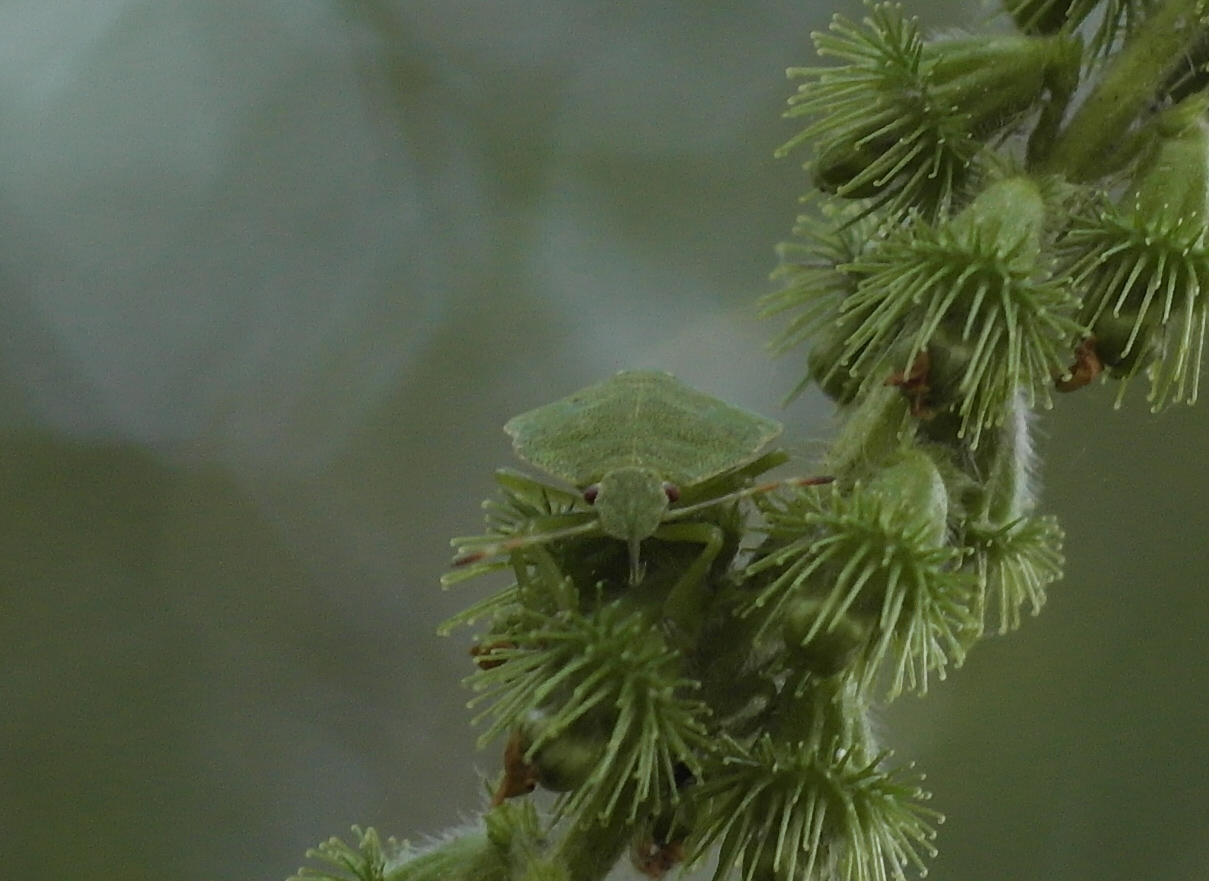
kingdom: Animalia
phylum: Arthropoda
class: Insecta
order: Hemiptera
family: Pentatomidae
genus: Palomena
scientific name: Palomena prasina
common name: Green shieldbug
